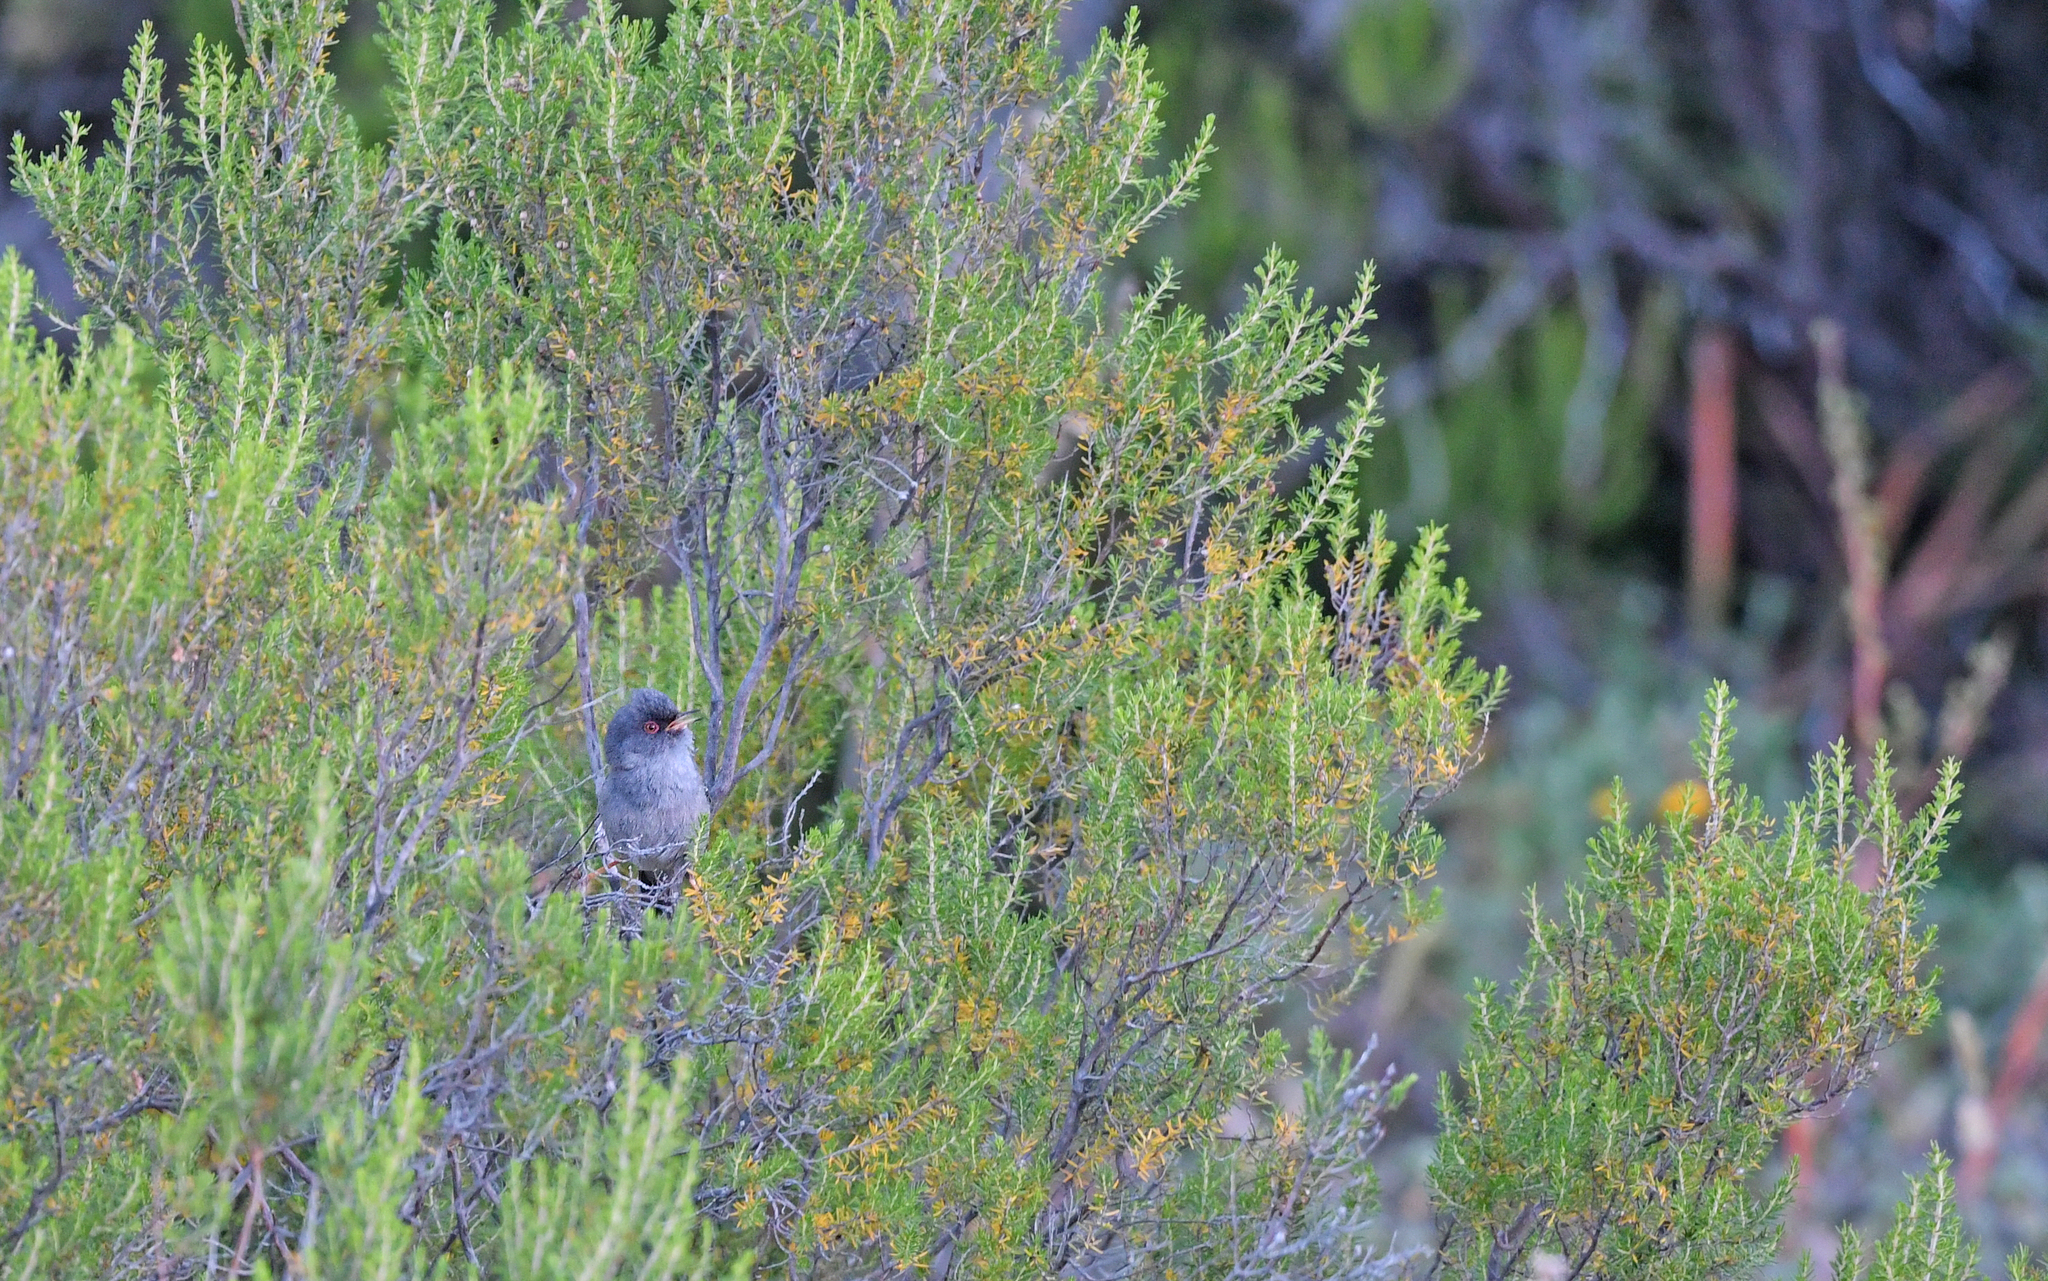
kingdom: Animalia
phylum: Chordata
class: Aves
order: Passeriformes
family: Sylviidae
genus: Sylvia
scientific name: Sylvia sarda
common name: Marmora's warbler
